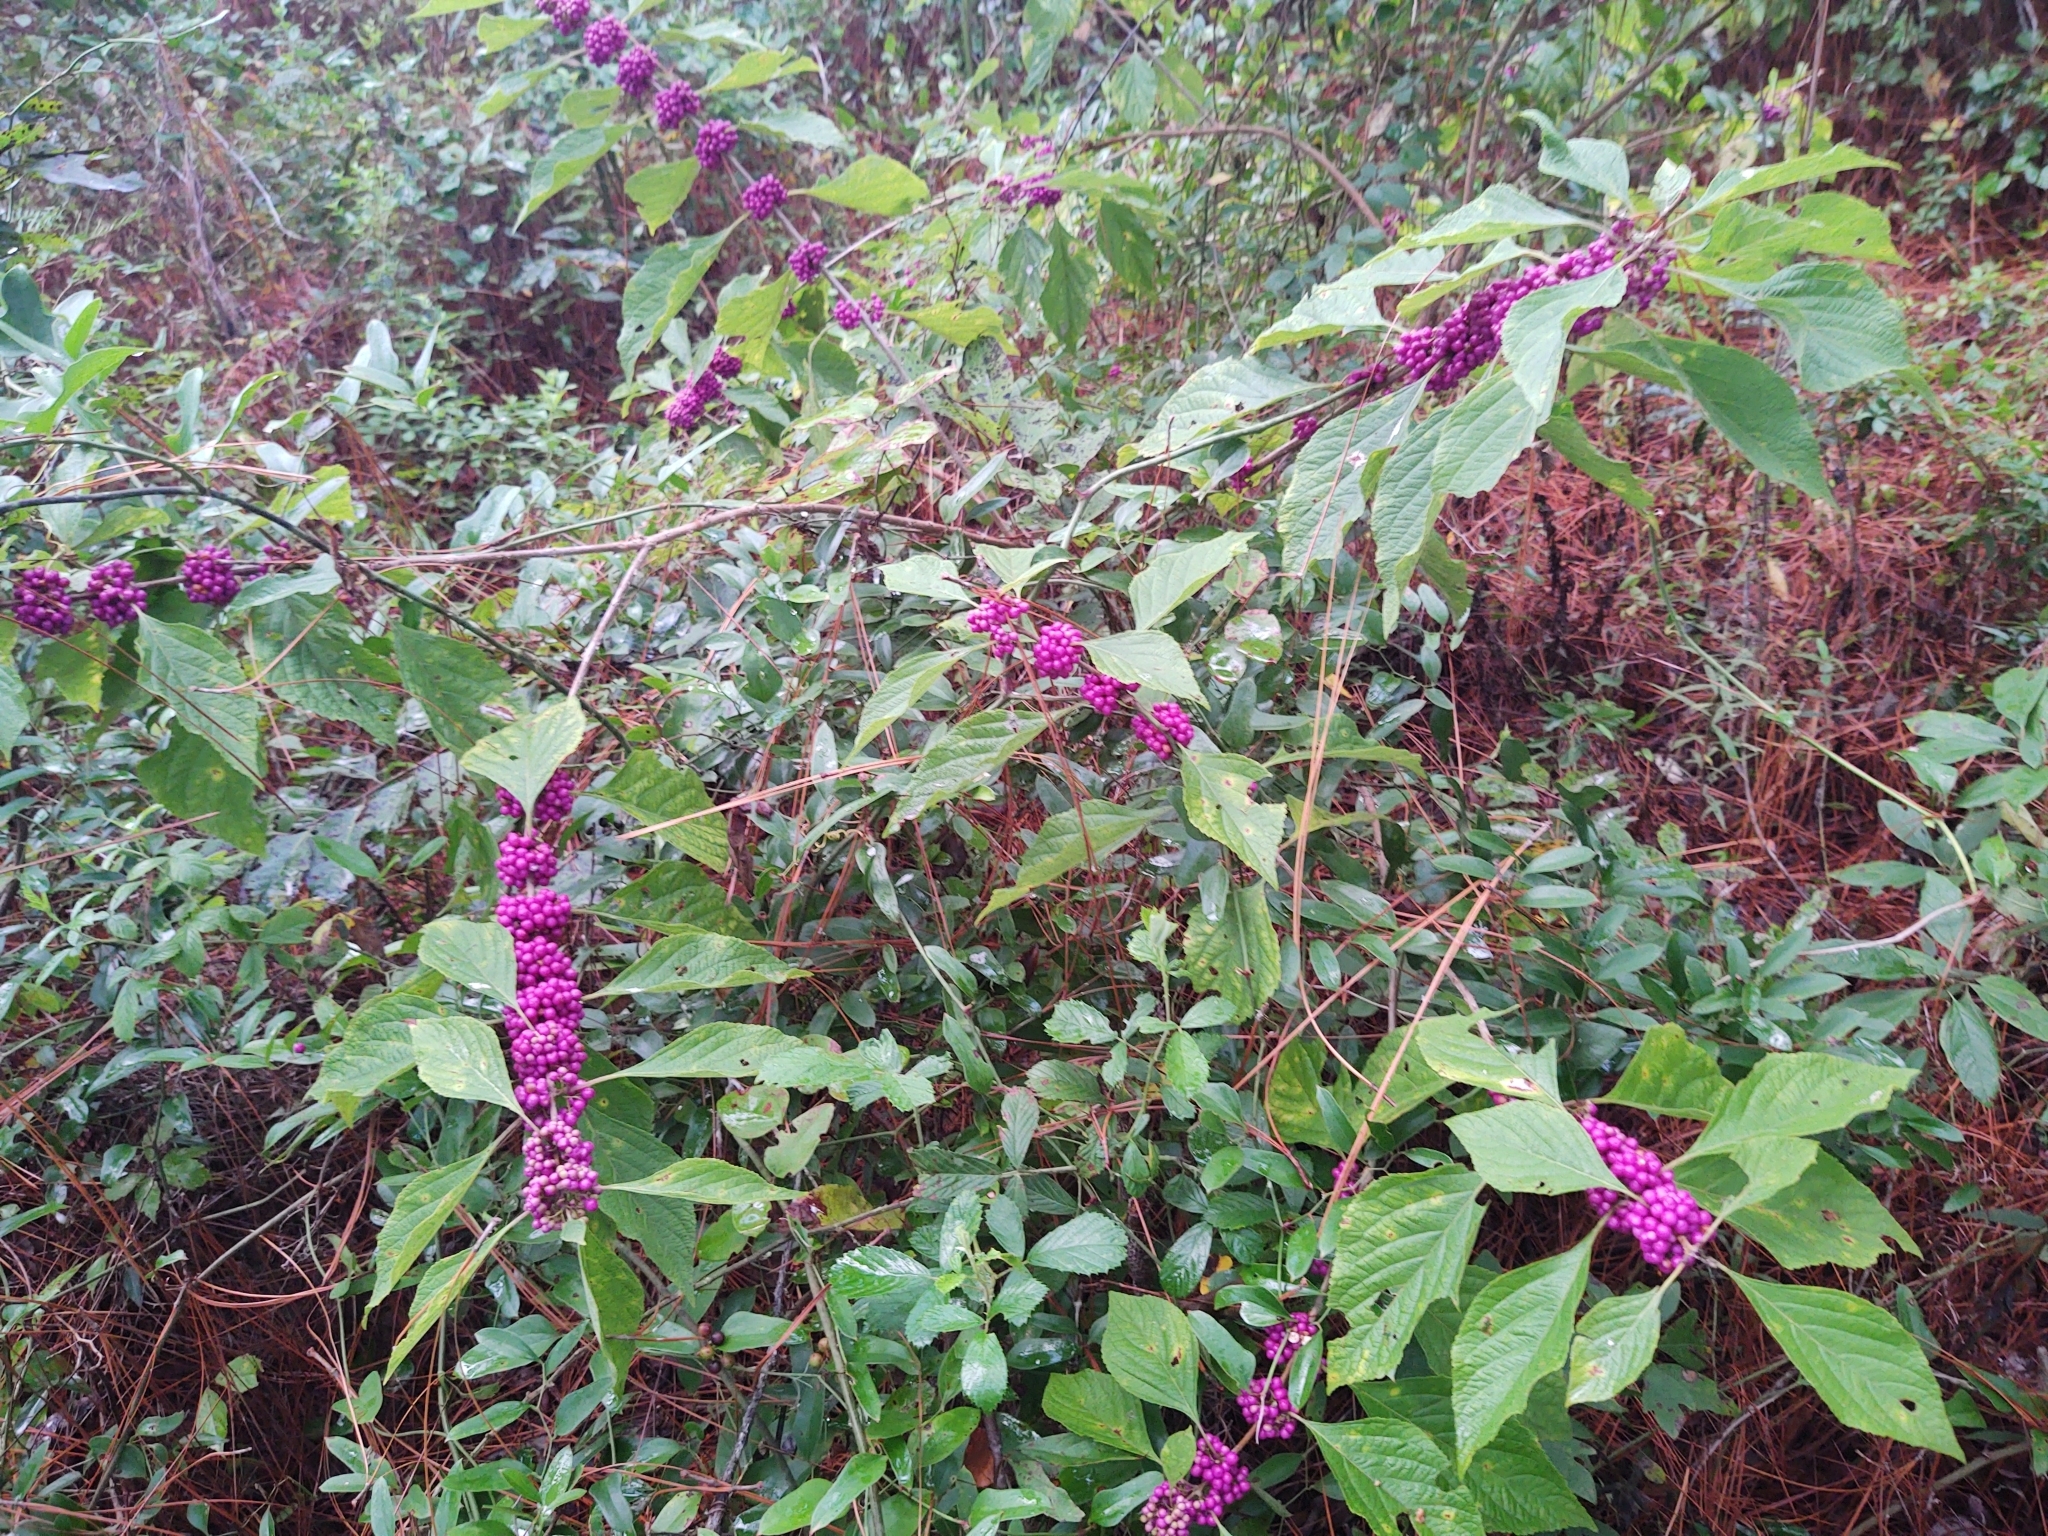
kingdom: Plantae
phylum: Tracheophyta
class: Magnoliopsida
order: Lamiales
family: Lamiaceae
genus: Callicarpa
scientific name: Callicarpa americana
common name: American beautyberry
